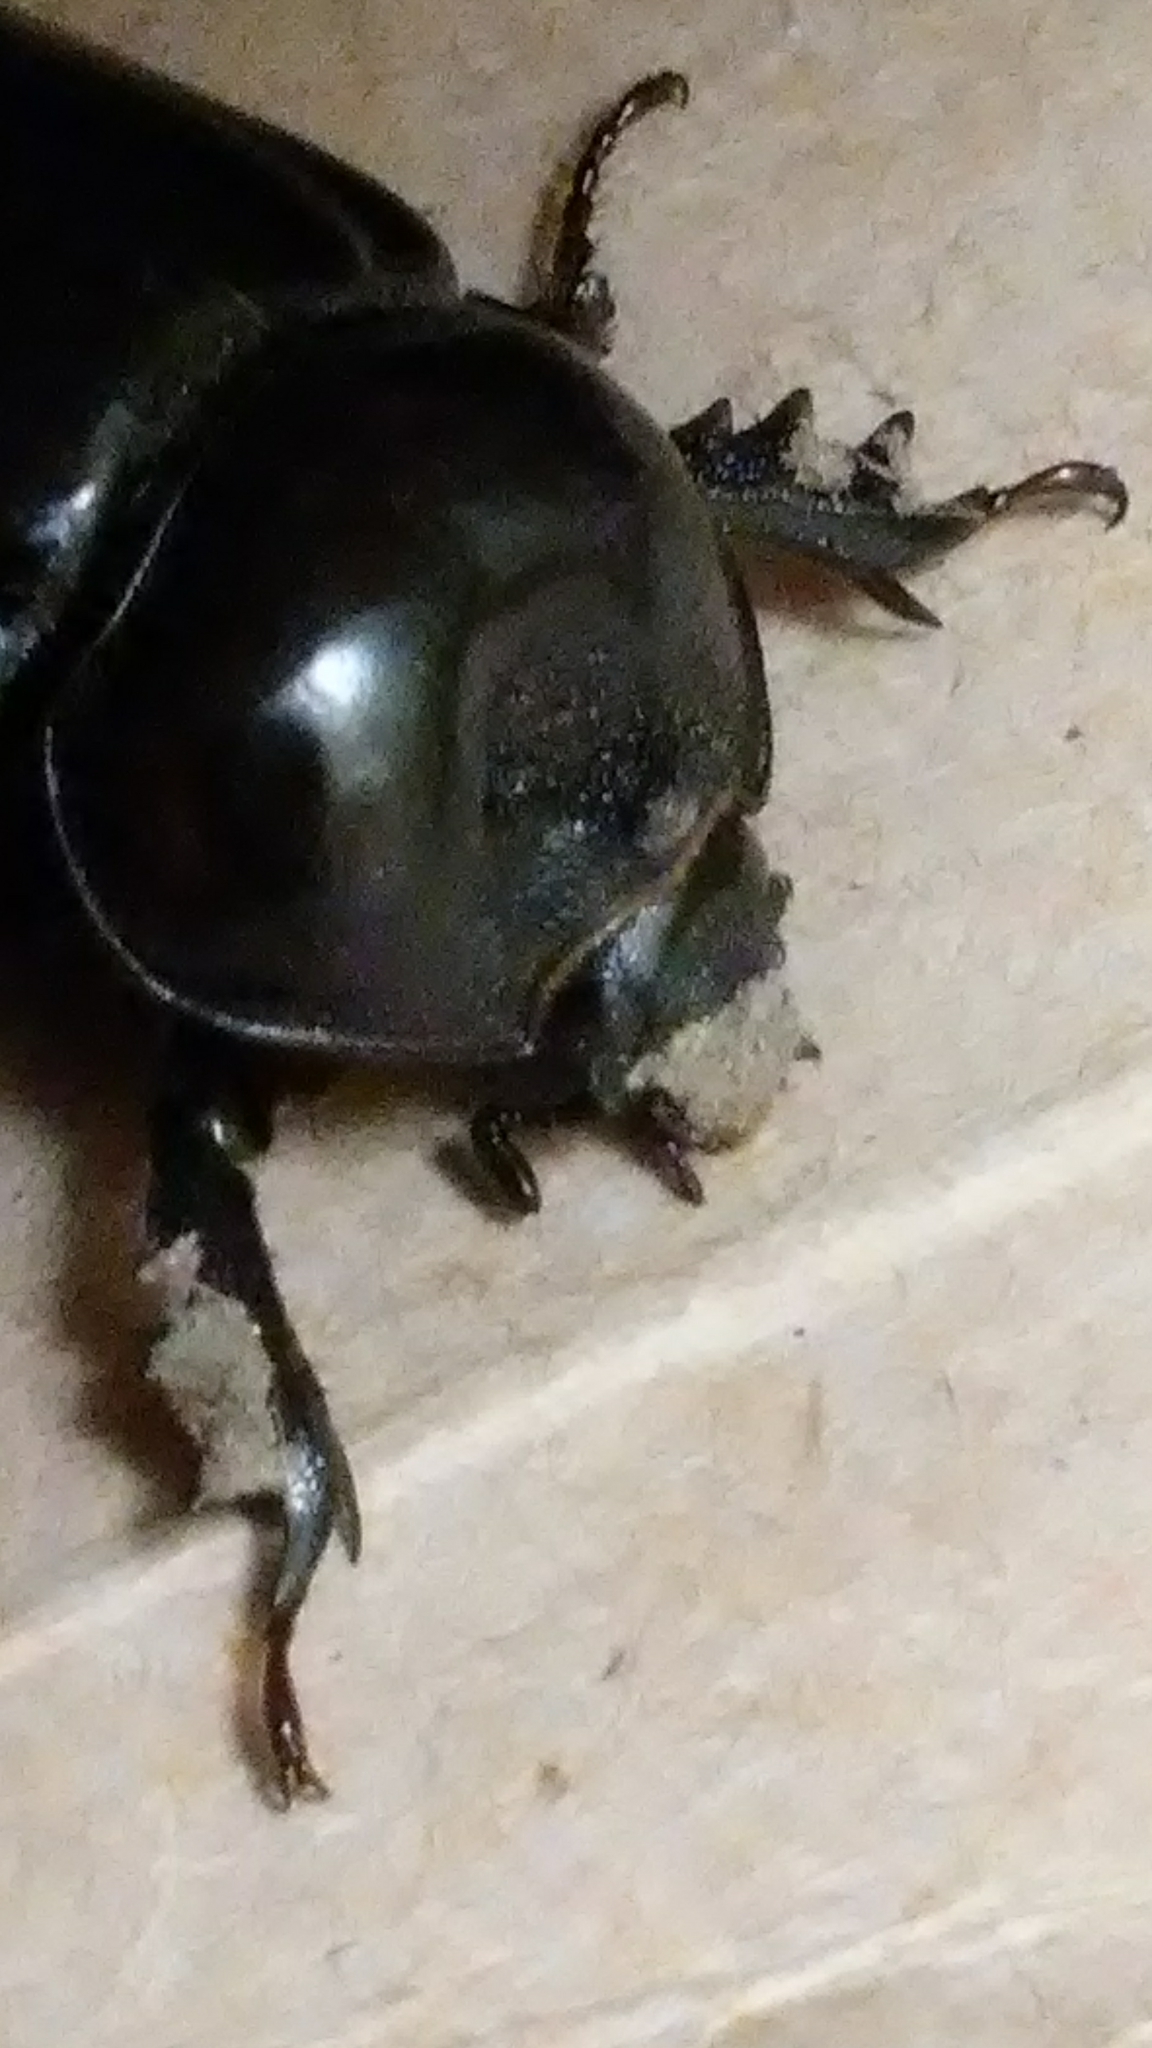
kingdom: Animalia
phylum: Arthropoda
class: Insecta
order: Coleoptera
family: Scarabaeidae
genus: Strategus
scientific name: Strategus antaeus
